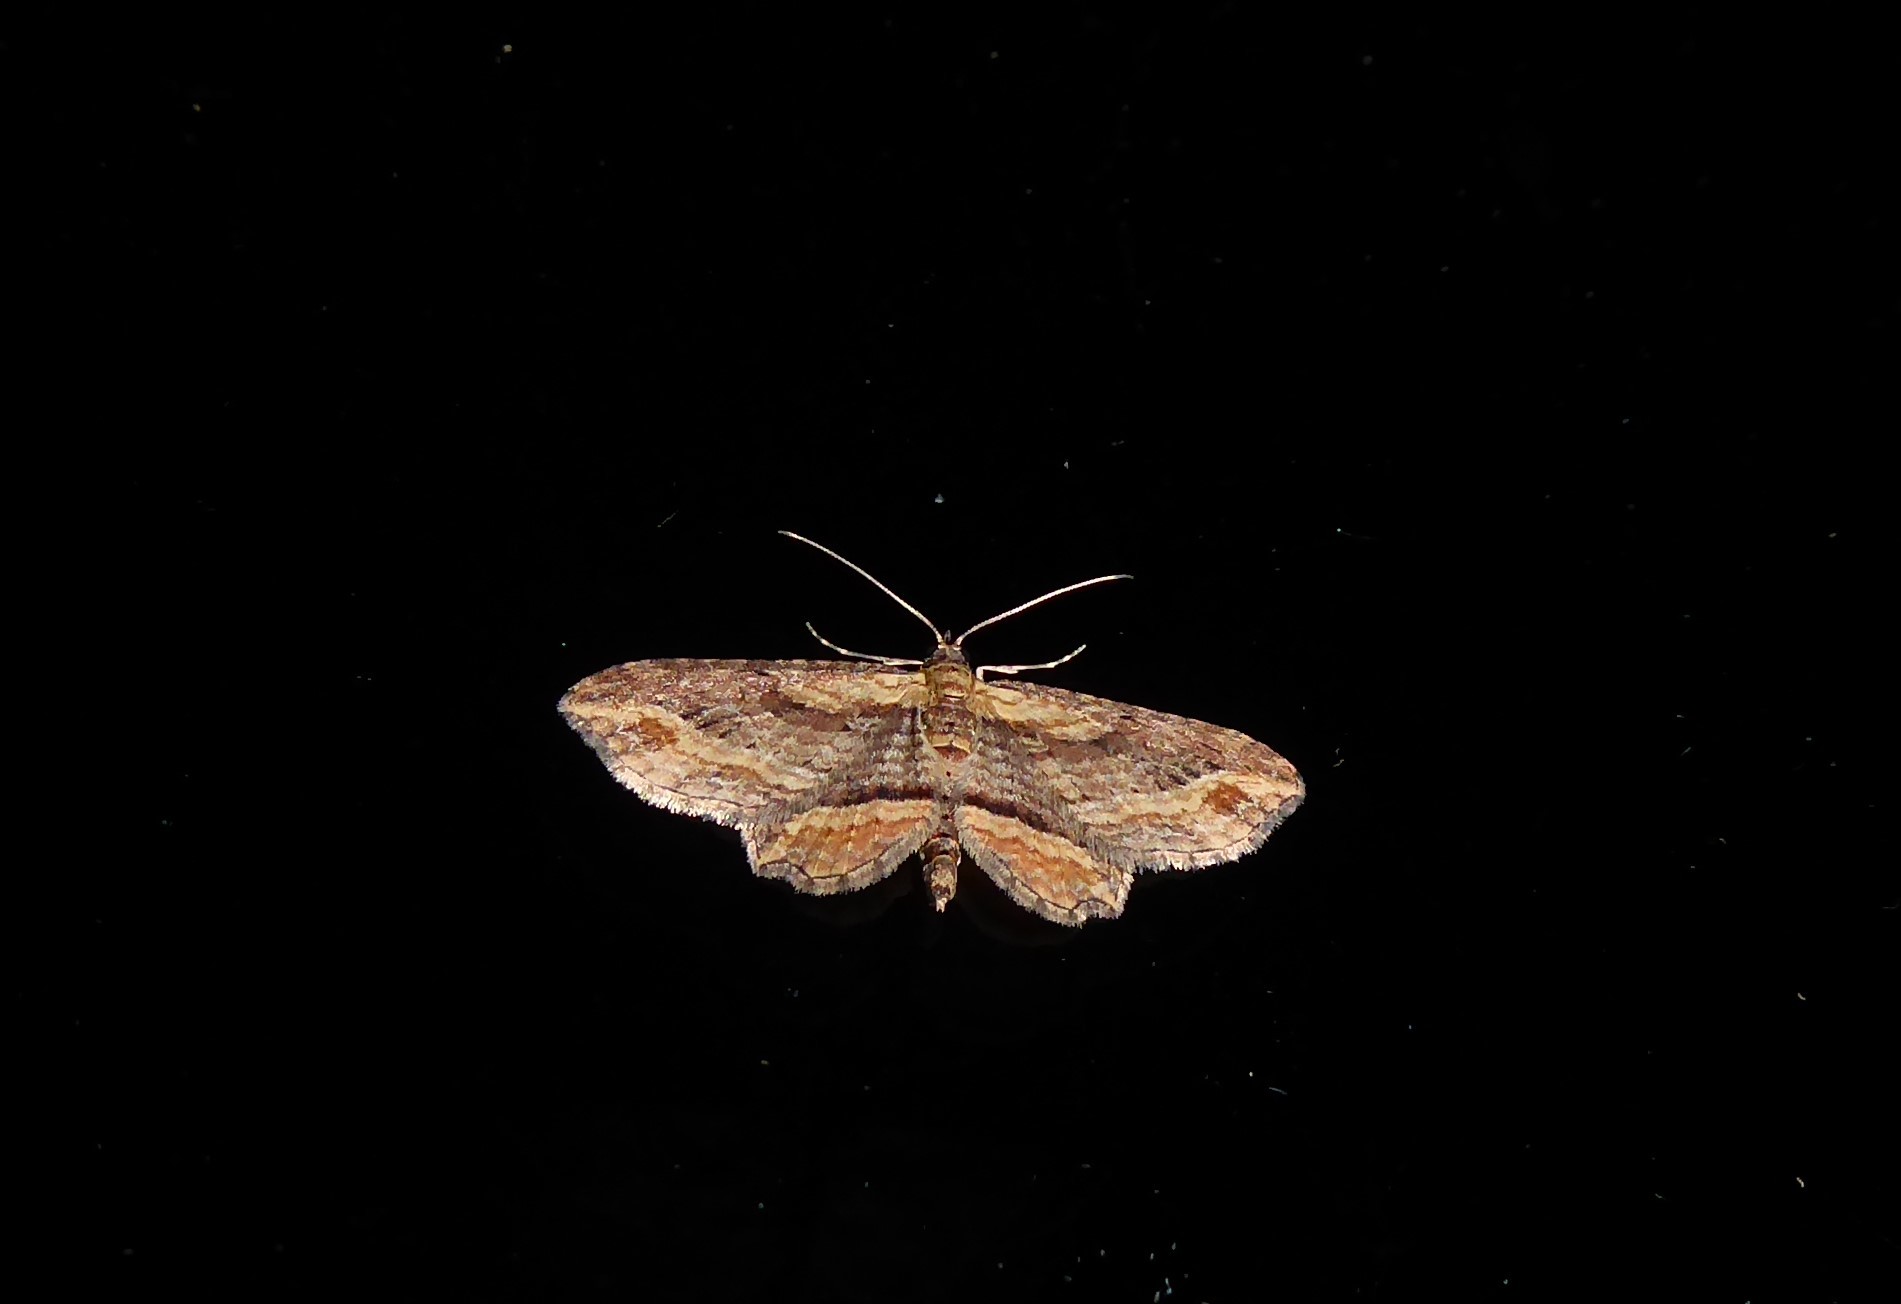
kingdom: Animalia
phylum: Arthropoda
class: Insecta
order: Lepidoptera
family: Geometridae
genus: Chloroclystis
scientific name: Chloroclystis filata
